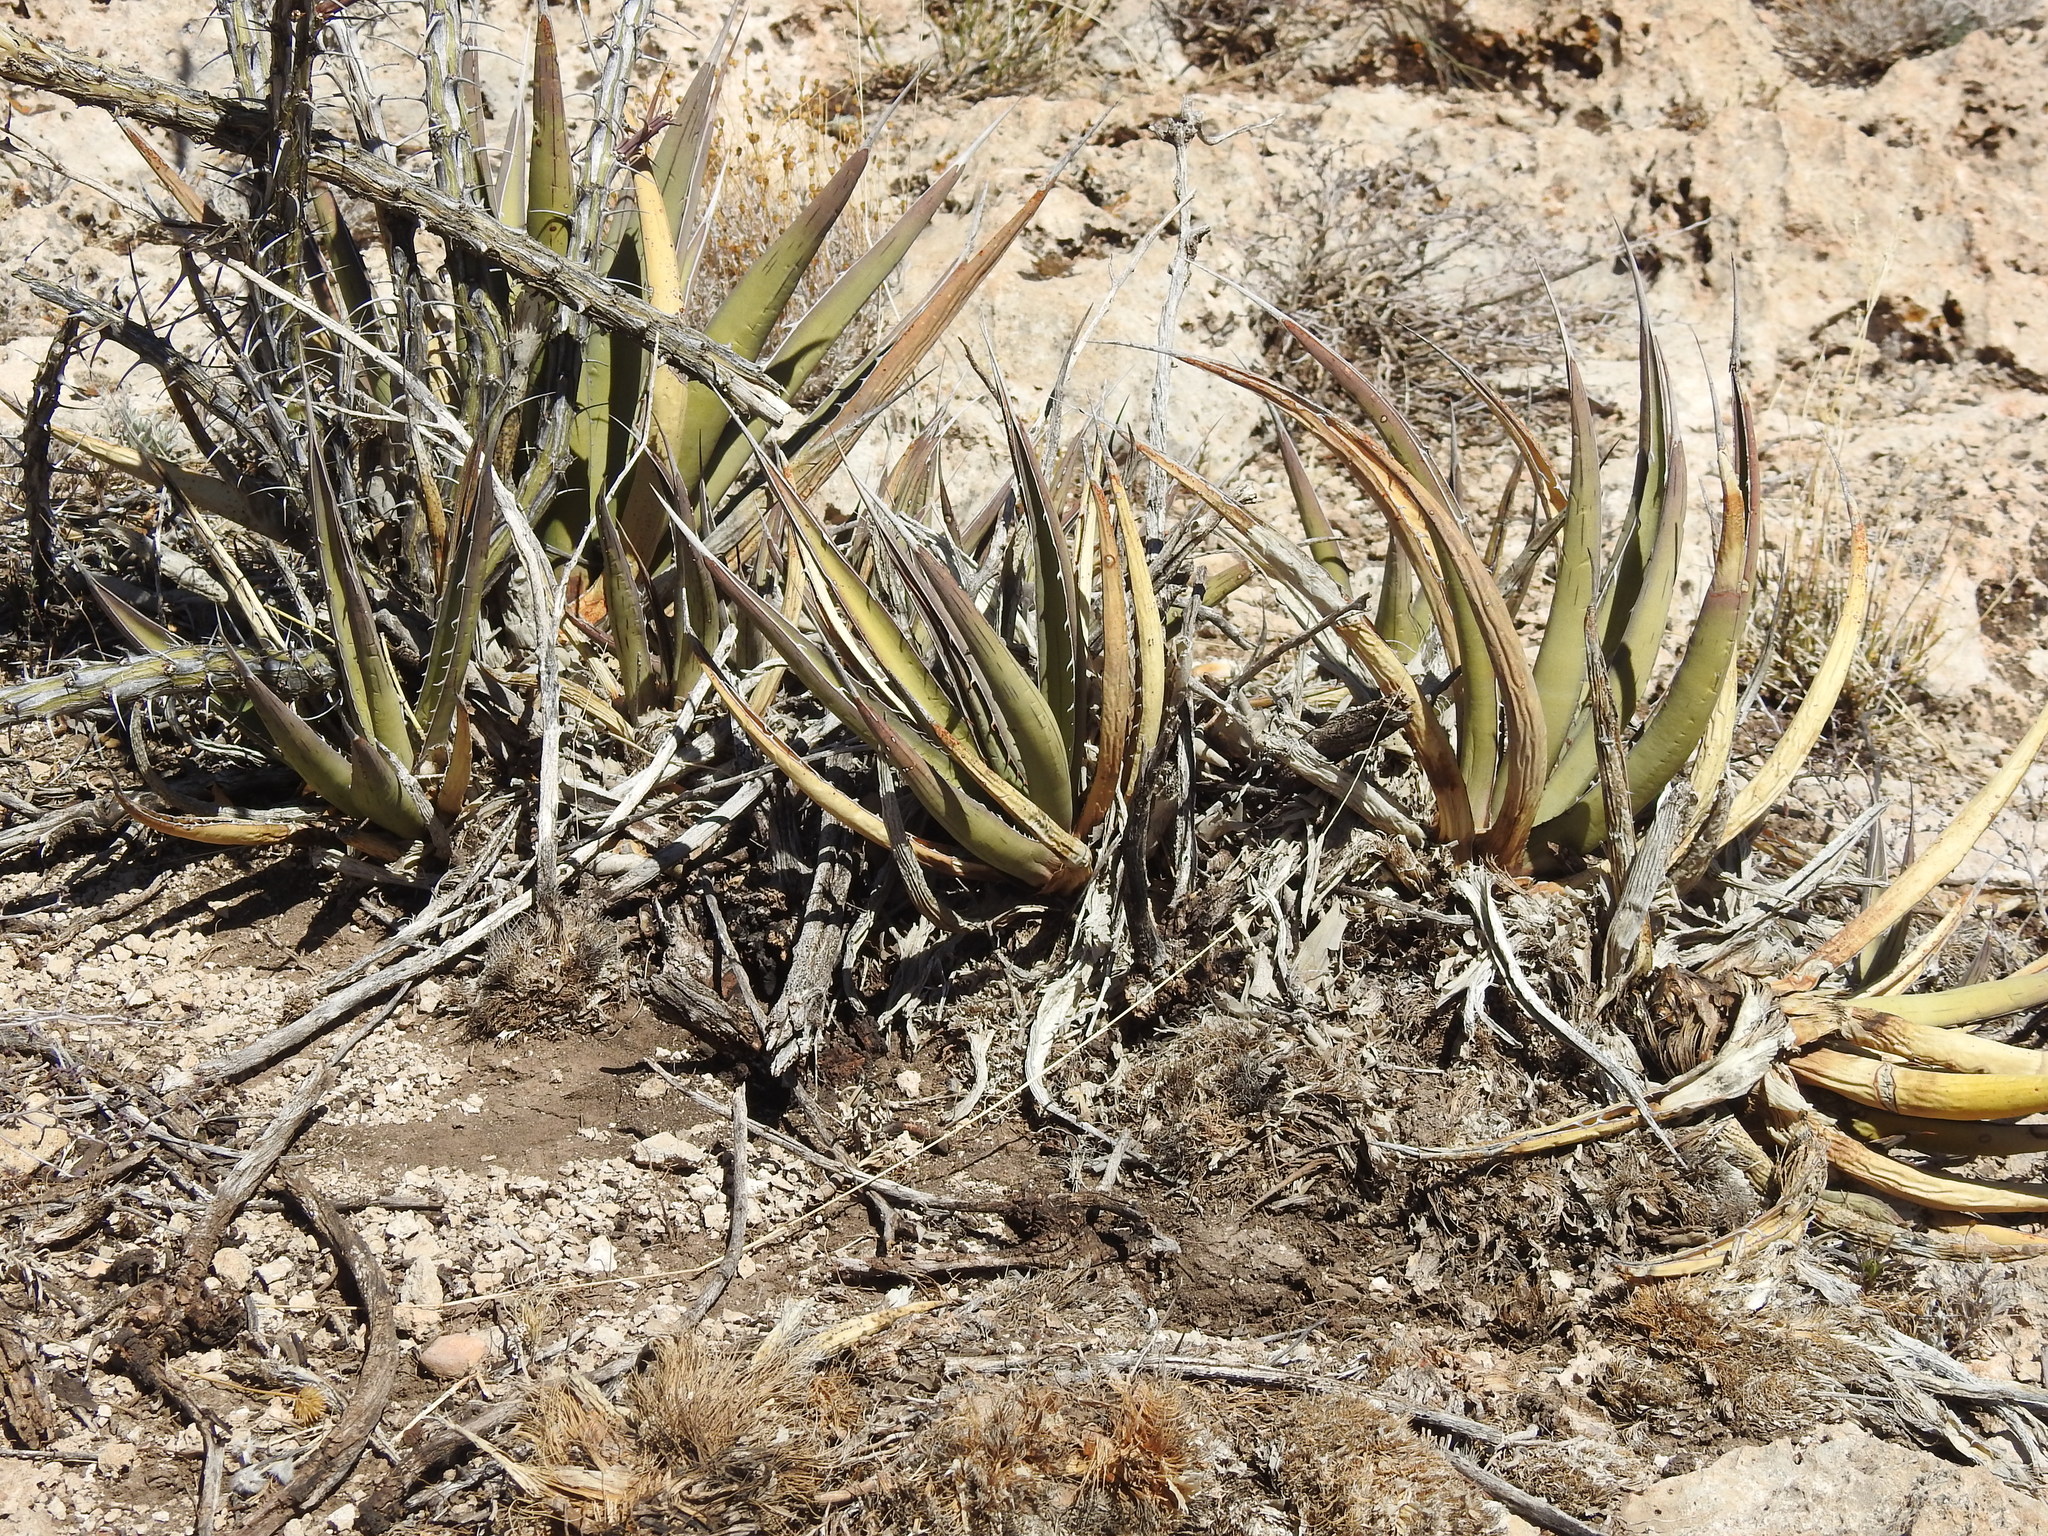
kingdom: Plantae
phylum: Tracheophyta
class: Liliopsida
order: Asparagales
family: Asparagaceae
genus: Agave
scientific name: Agave lechuguilla
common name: Lecheguilla agave
